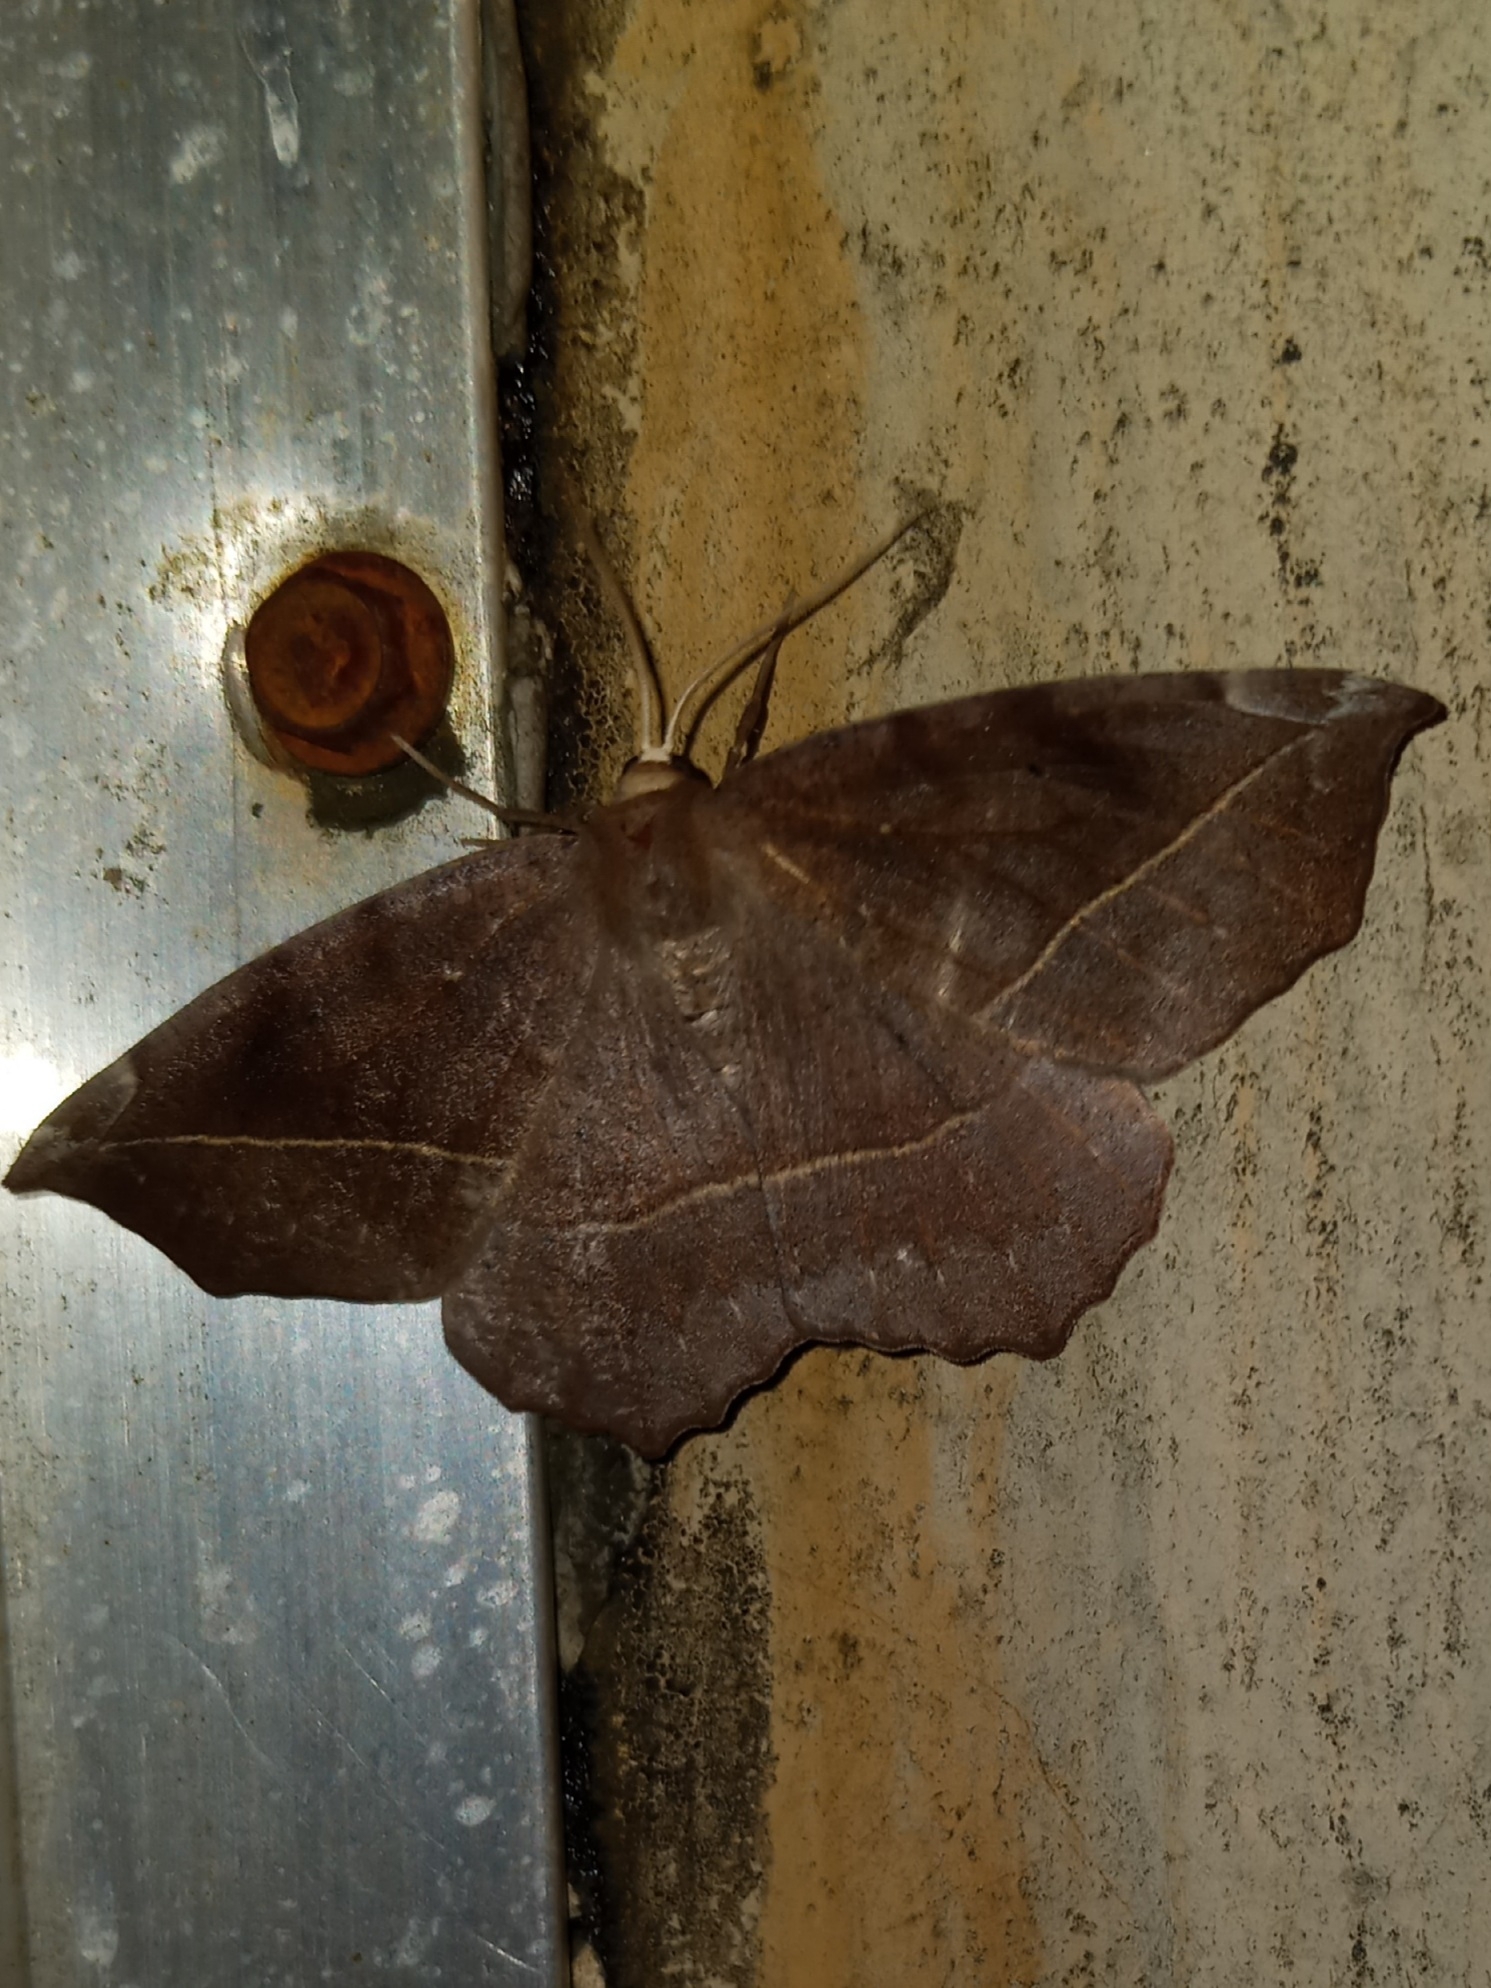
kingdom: Animalia
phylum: Arthropoda
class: Insecta
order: Lepidoptera
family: Geometridae
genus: Eutrapela
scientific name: Eutrapela clemataria
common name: Curved-toothed geometer
